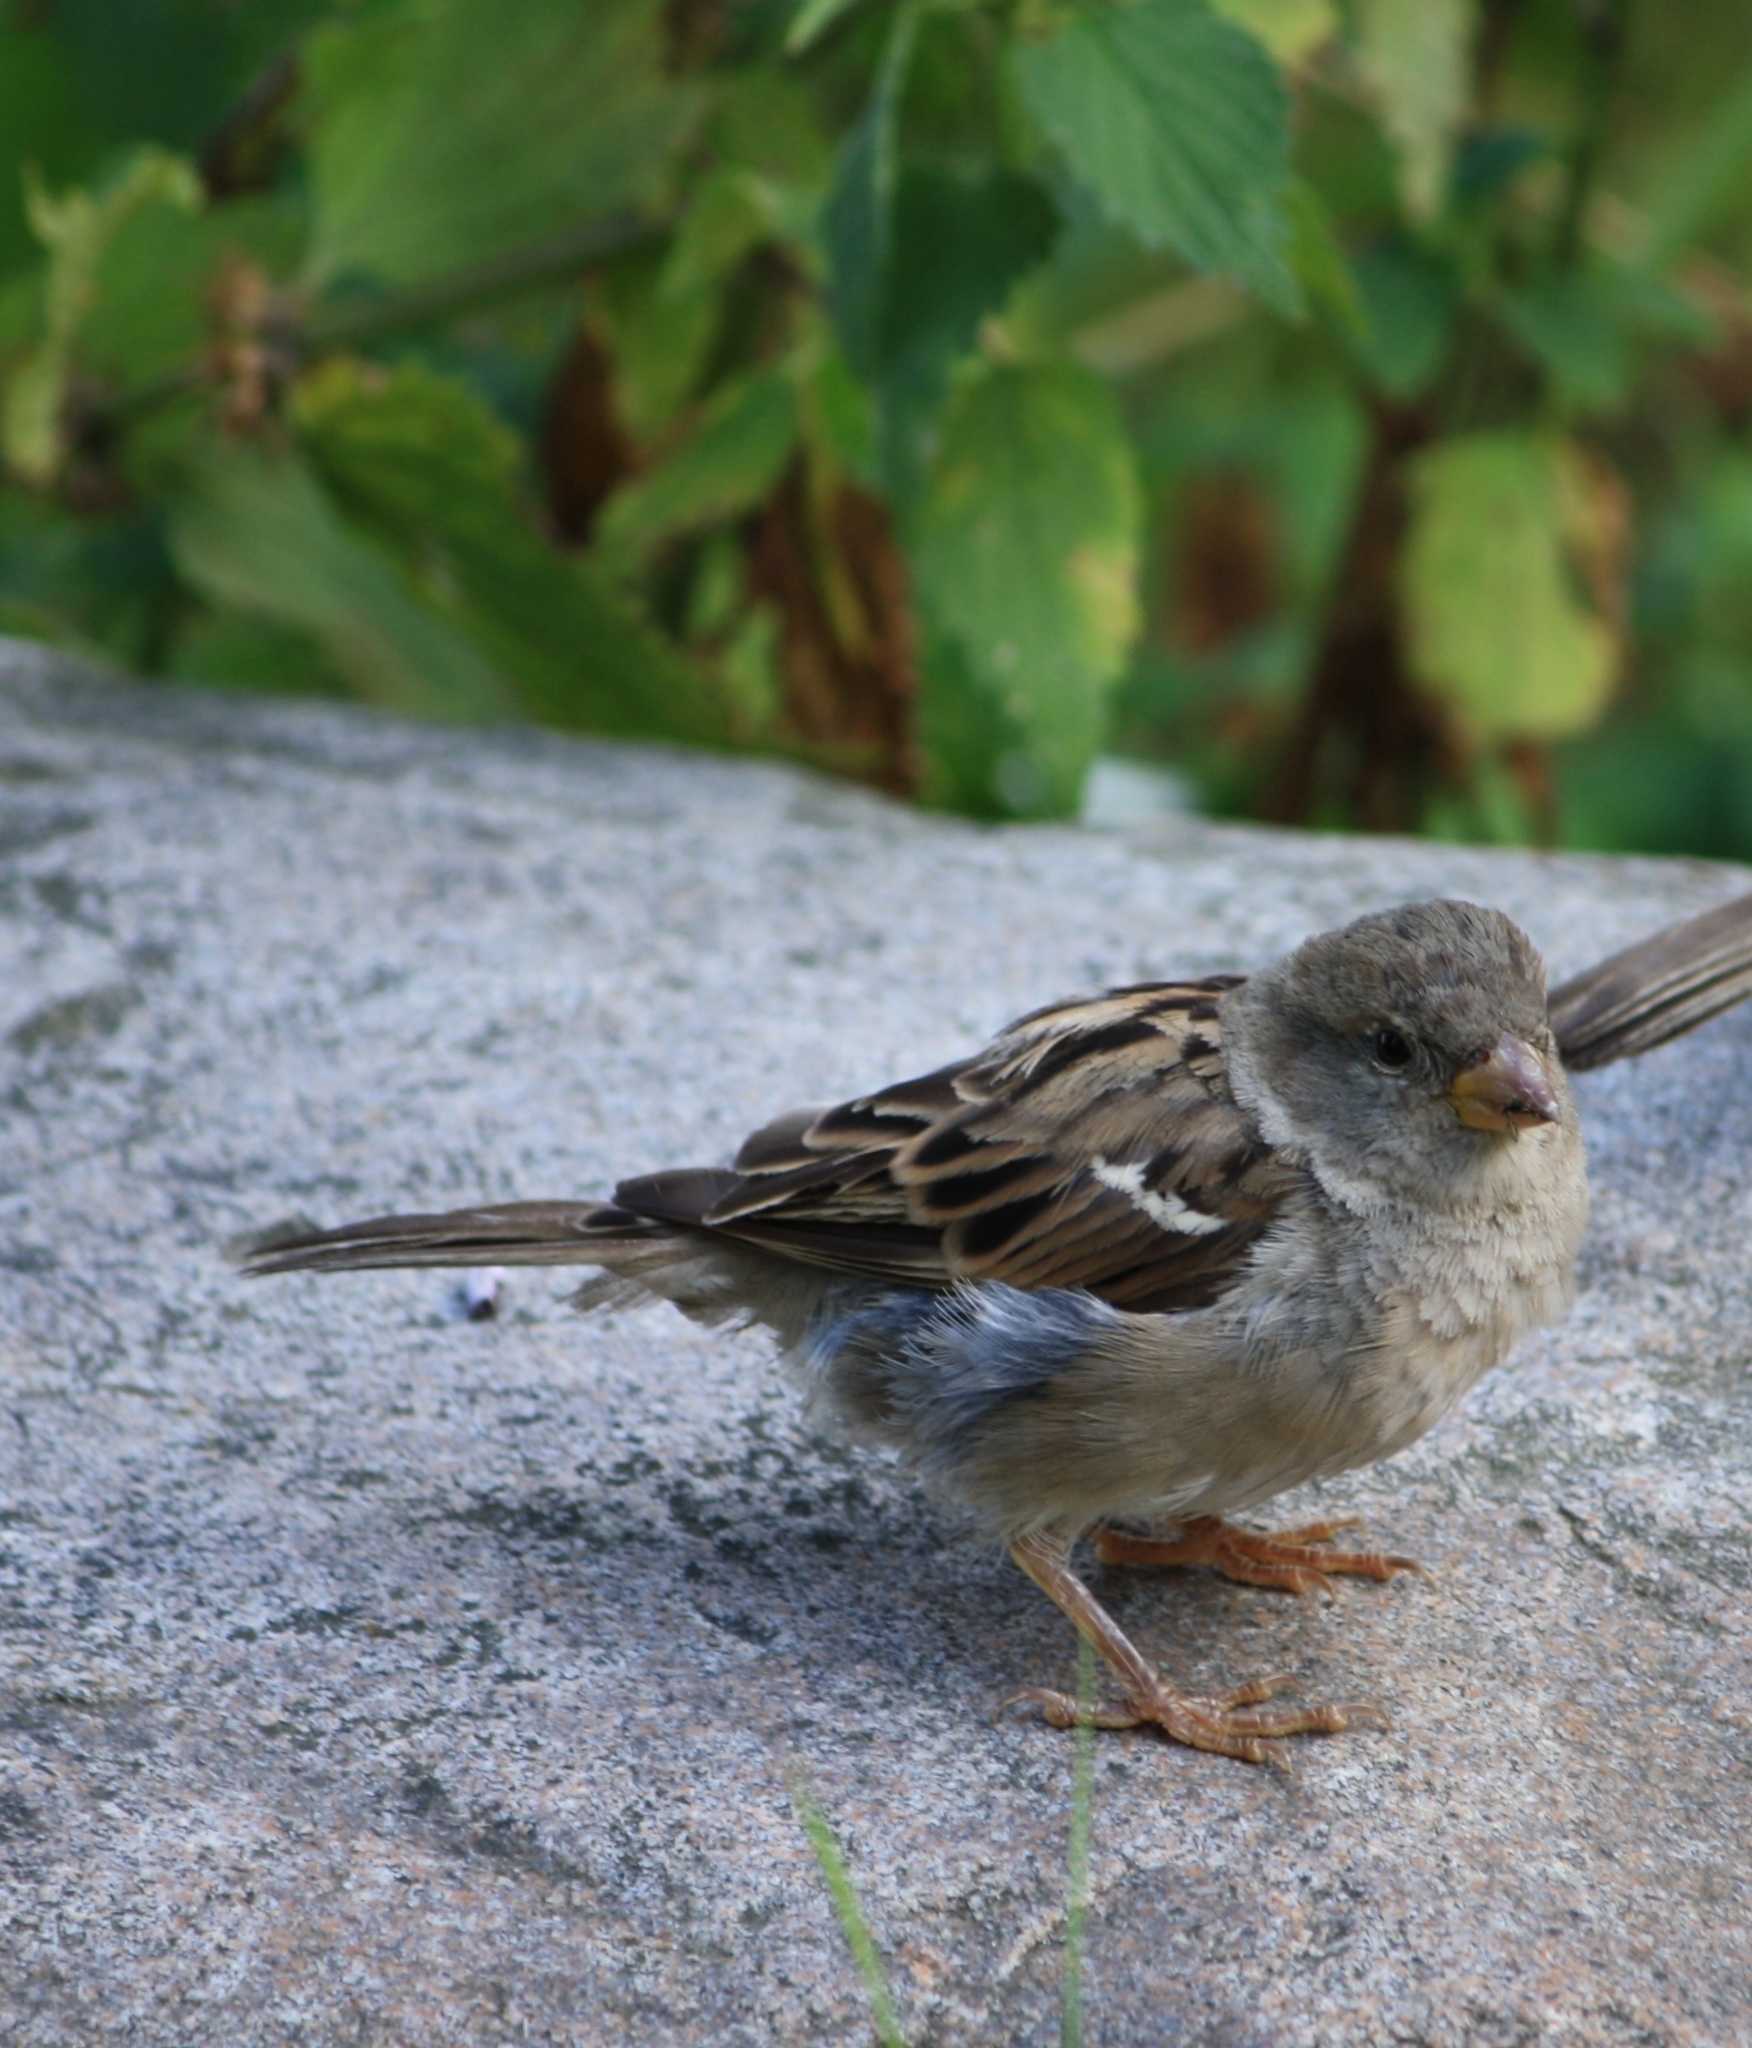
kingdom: Animalia
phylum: Chordata
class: Aves
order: Passeriformes
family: Passeridae
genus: Passer
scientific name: Passer domesticus
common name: House sparrow
